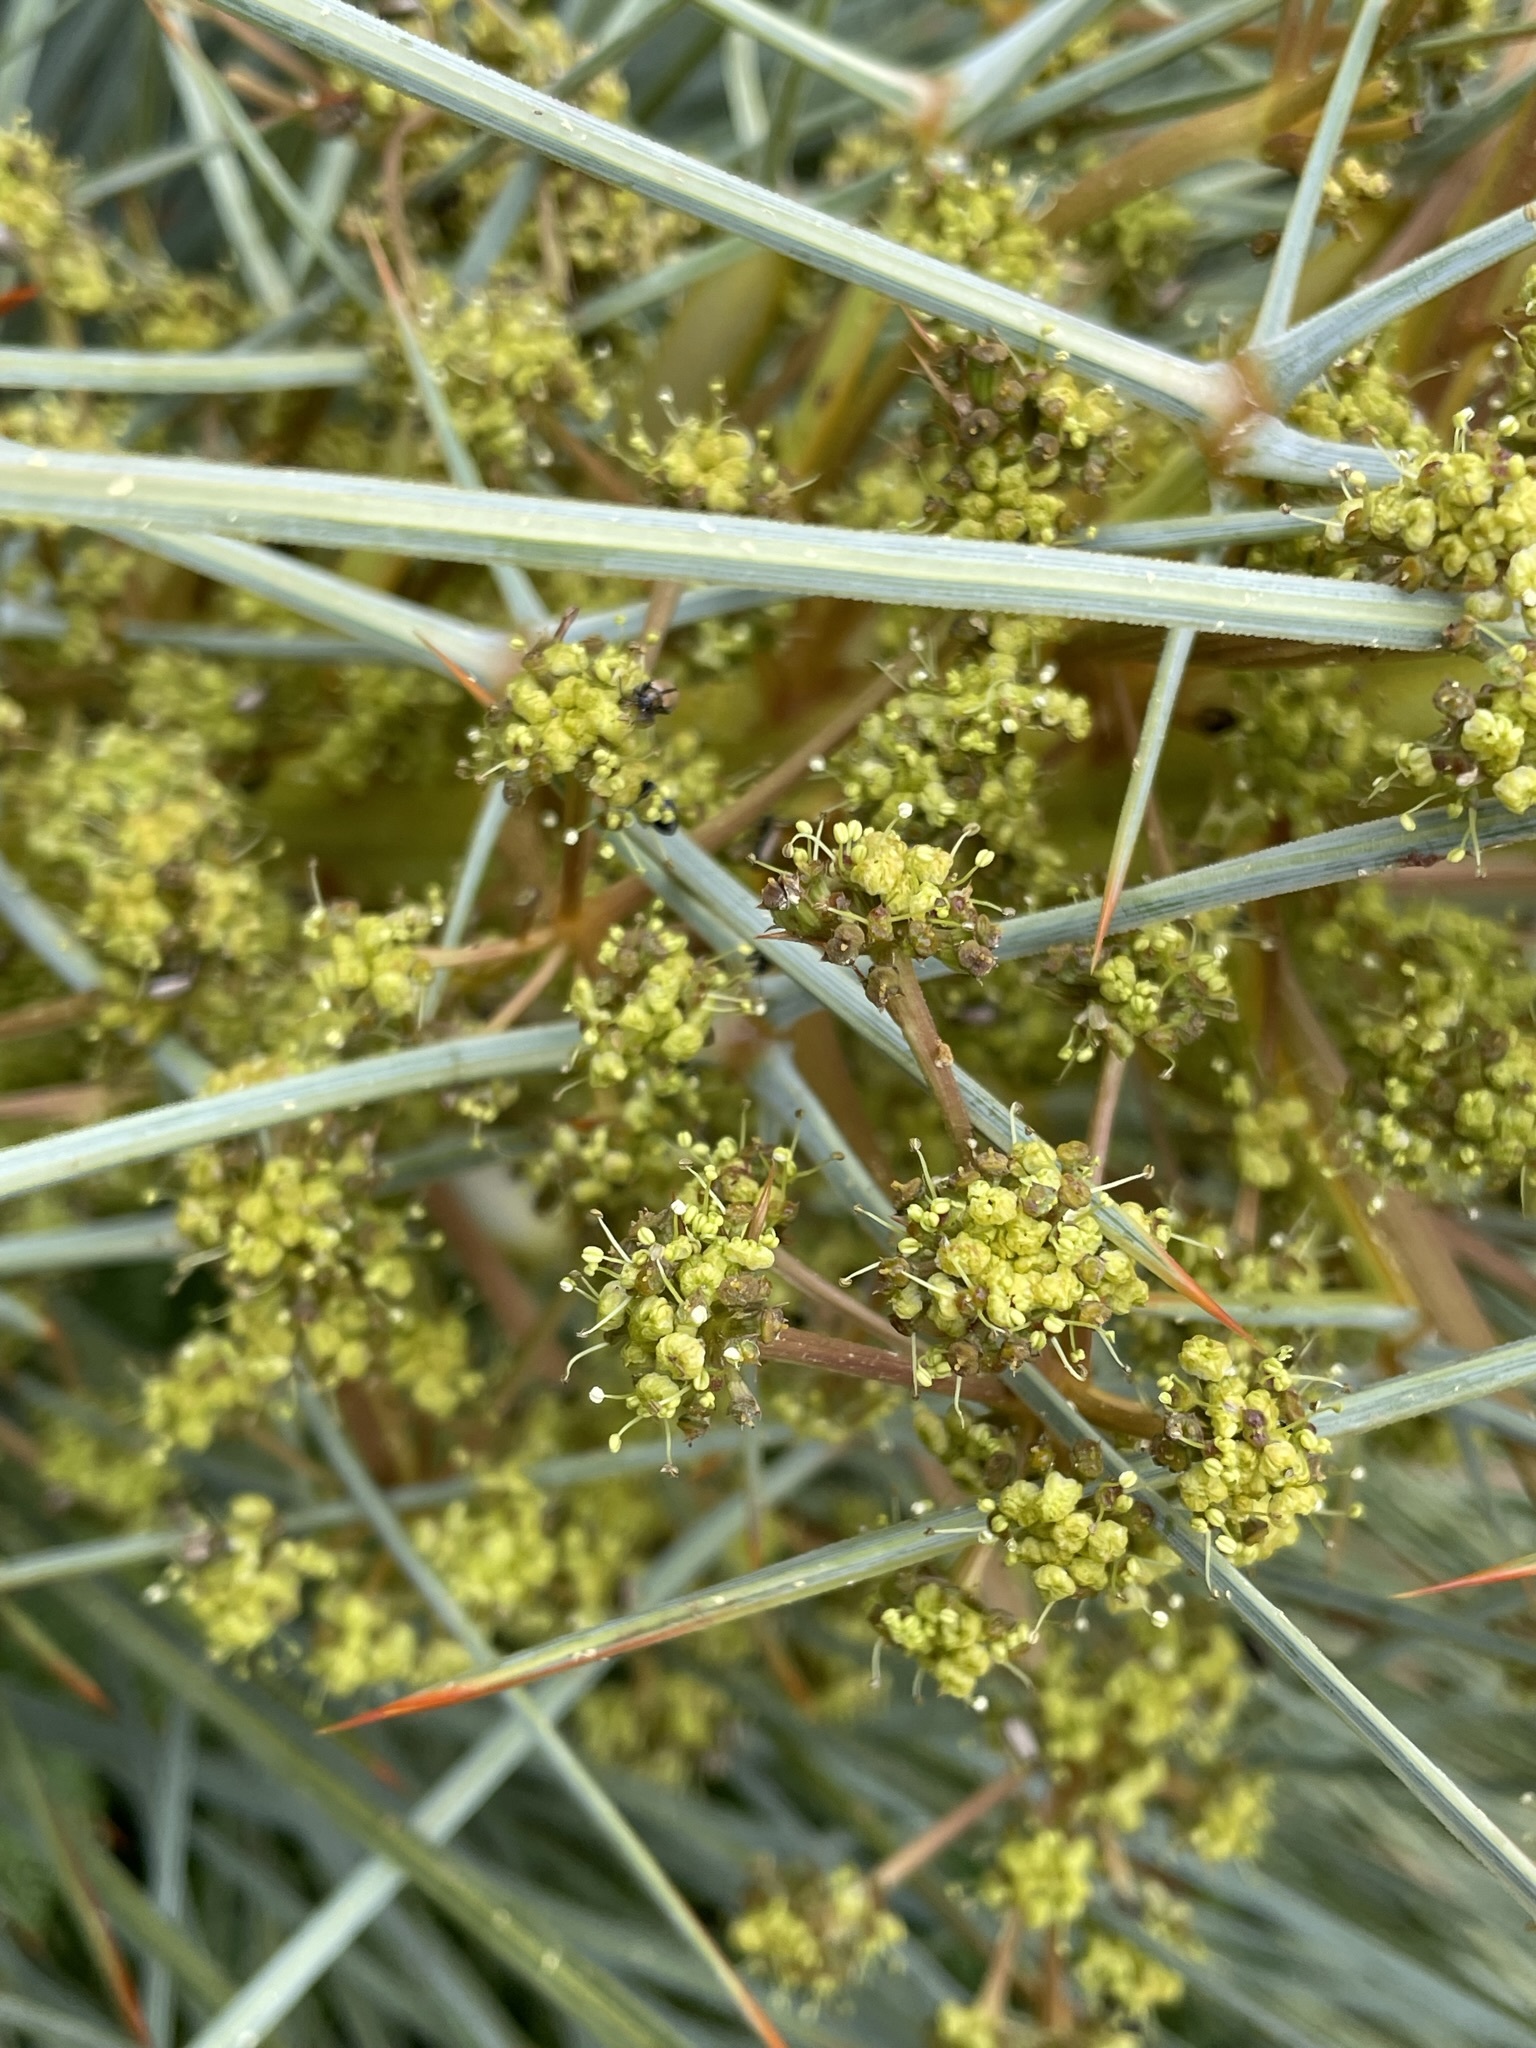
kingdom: Plantae
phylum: Tracheophyta
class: Magnoliopsida
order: Apiales
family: Apiaceae
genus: Aciphylla
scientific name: Aciphylla squarrosa
